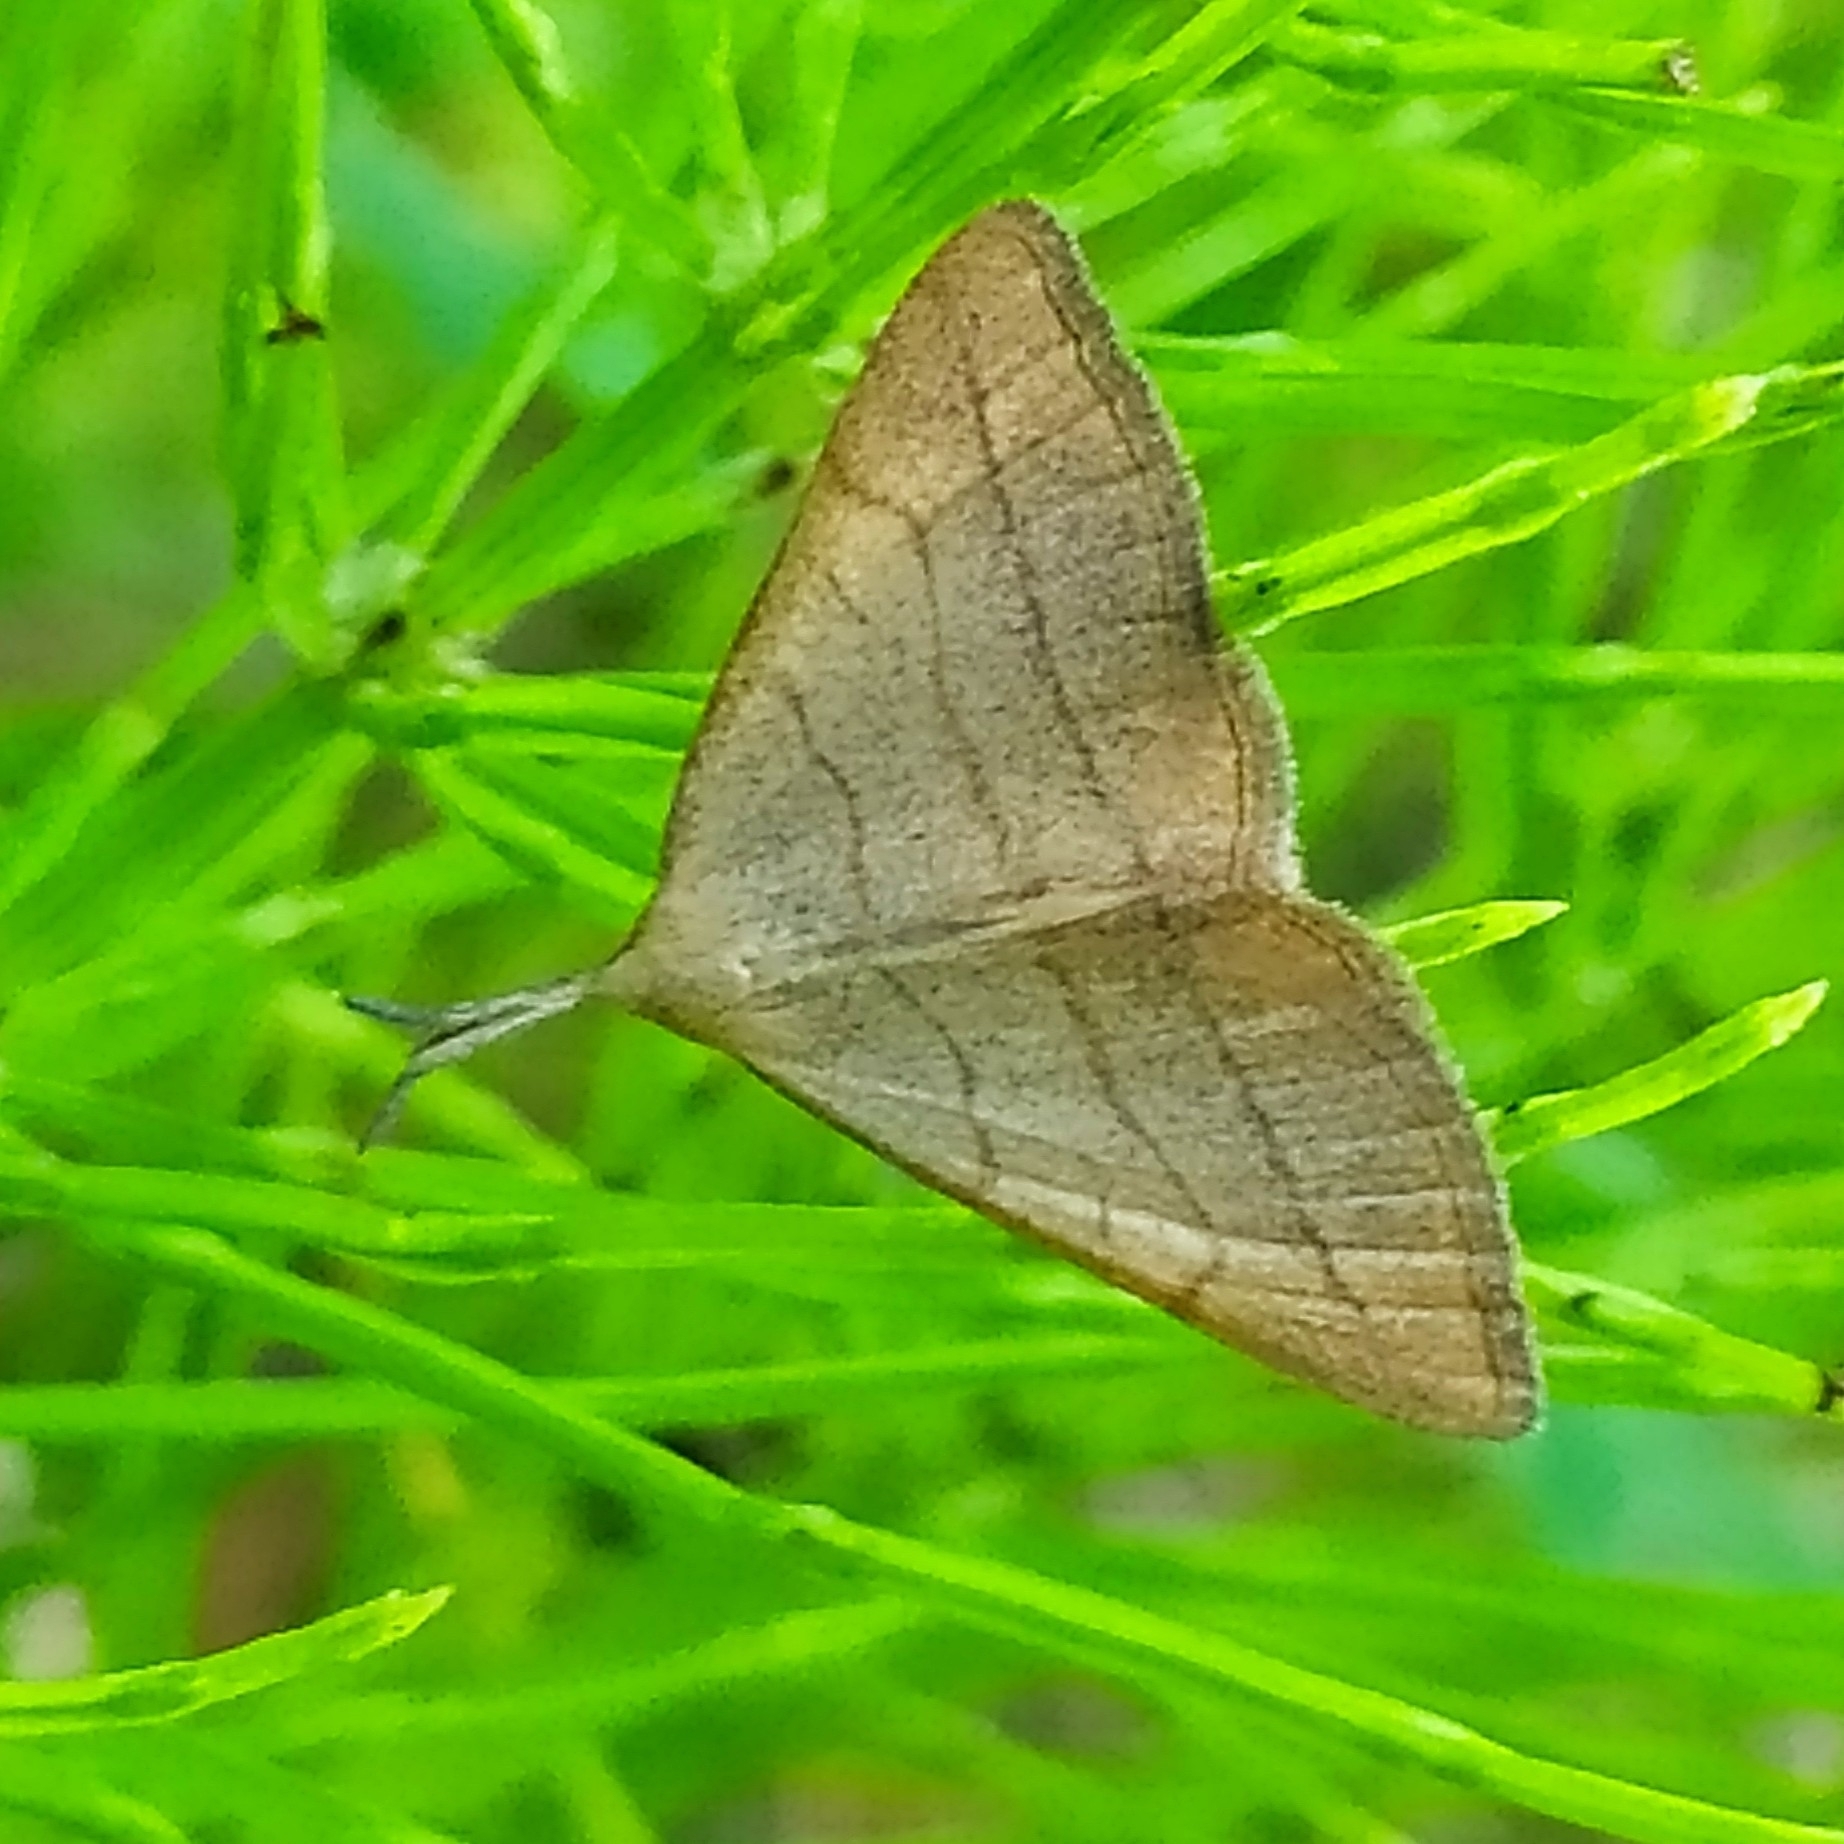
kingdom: Animalia
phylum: Arthropoda
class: Insecta
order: Lepidoptera
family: Erebidae
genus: Polypogon
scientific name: Polypogon tentacularia
